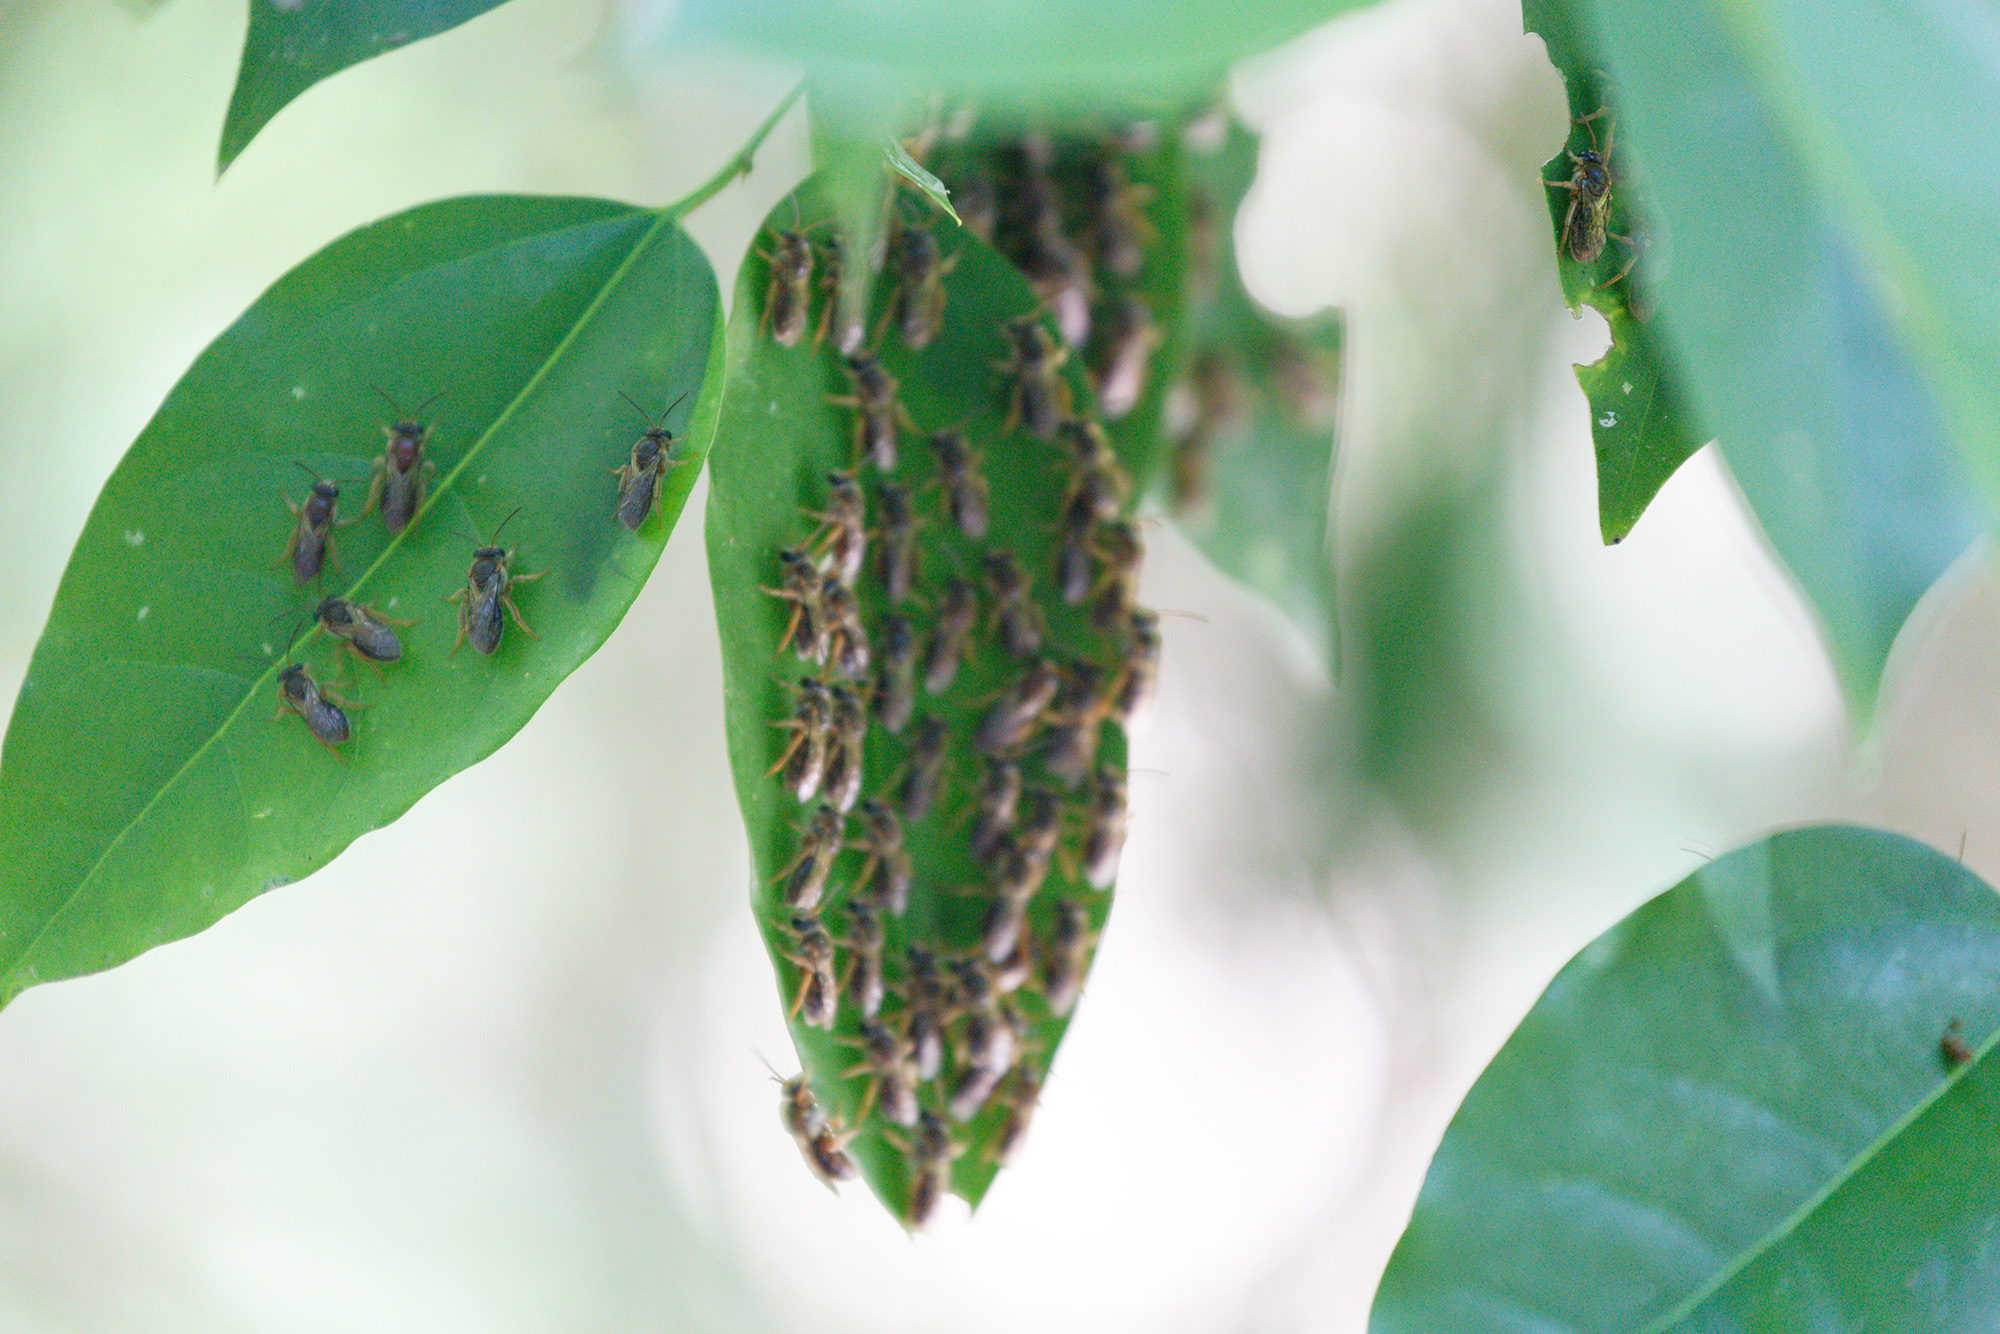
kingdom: Animalia
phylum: Arthropoda
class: Insecta
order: Hymenoptera
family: Halictidae
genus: Reepenia
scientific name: Reepenia bituberculata
